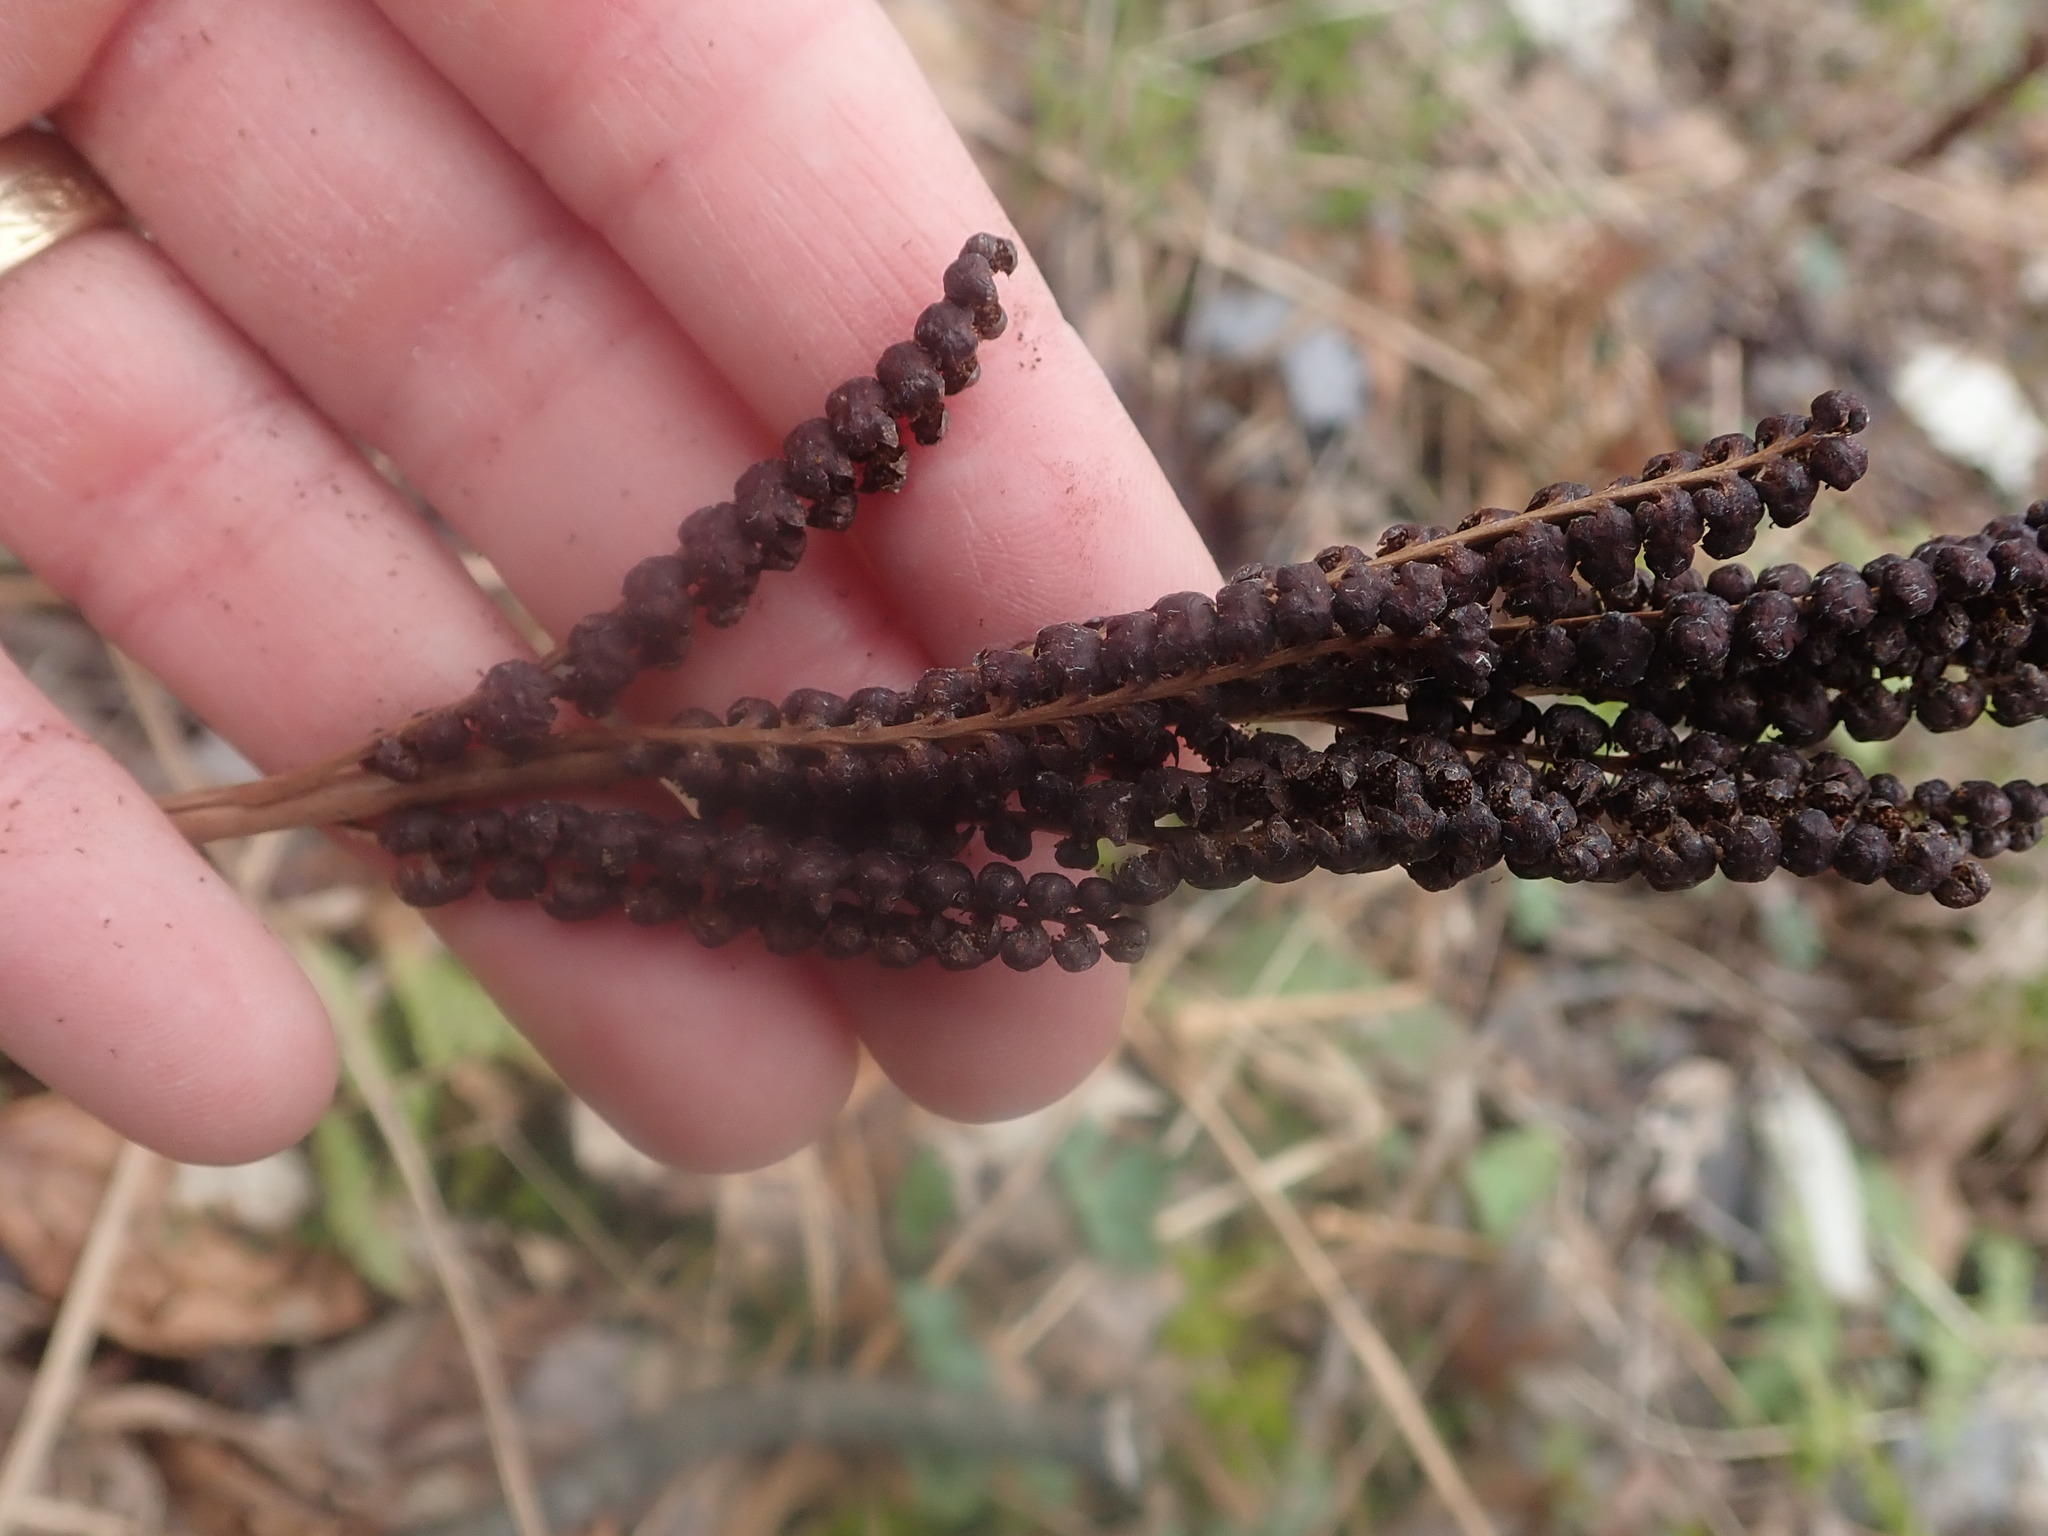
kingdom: Plantae
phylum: Tracheophyta
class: Polypodiopsida
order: Polypodiales
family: Onocleaceae
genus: Onoclea
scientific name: Onoclea sensibilis
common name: Sensitive fern
